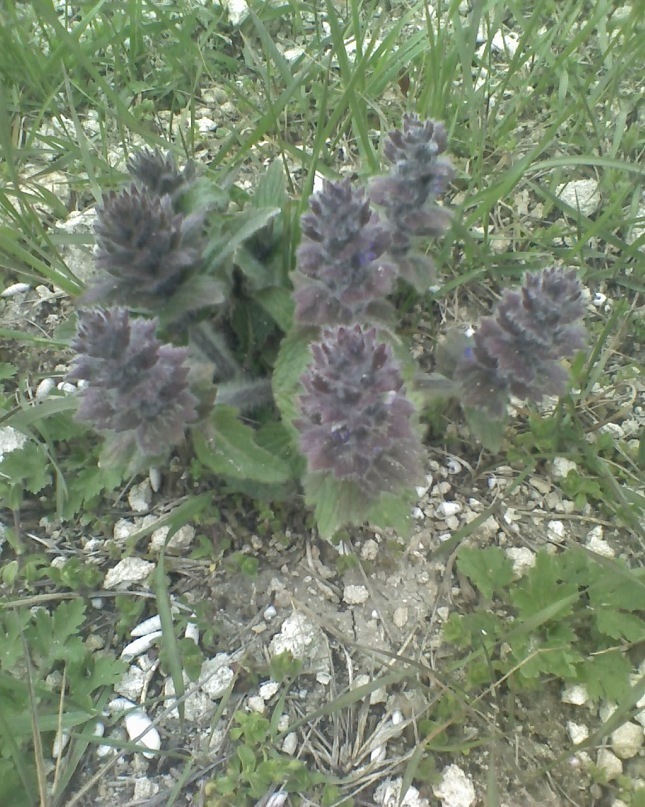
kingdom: Plantae
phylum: Tracheophyta
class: Magnoliopsida
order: Lamiales
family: Lamiaceae
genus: Ajuga
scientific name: Ajuga orientalis
